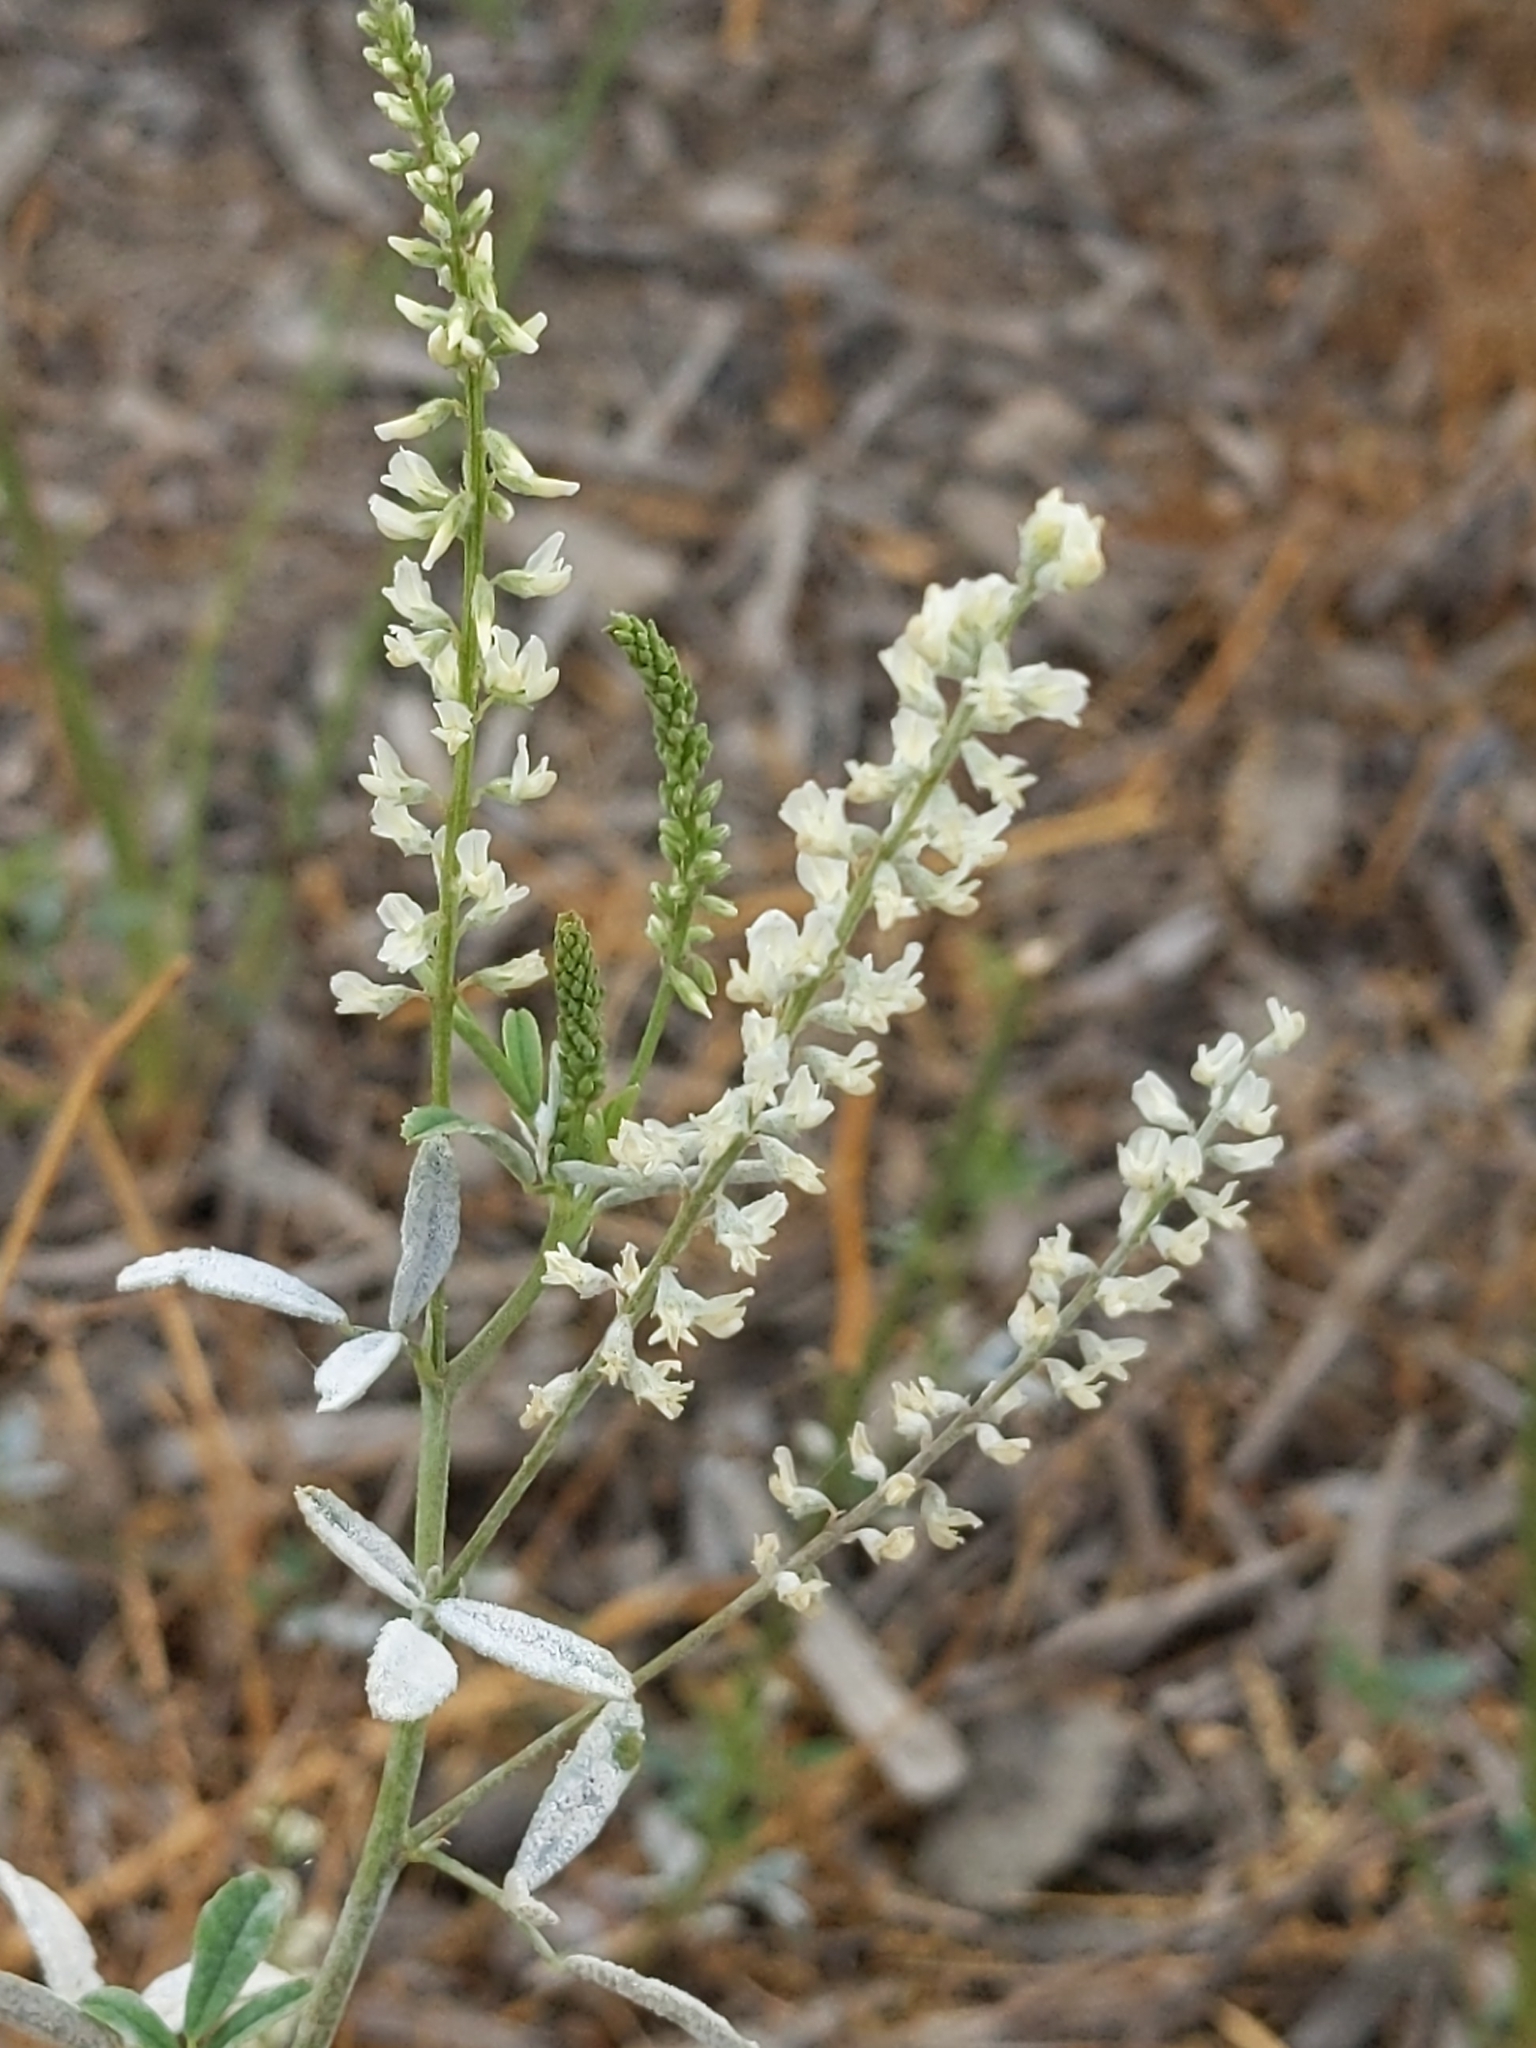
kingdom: Plantae
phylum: Tracheophyta
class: Magnoliopsida
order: Fabales
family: Fabaceae
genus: Melilotus
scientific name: Melilotus albus
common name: White melilot
